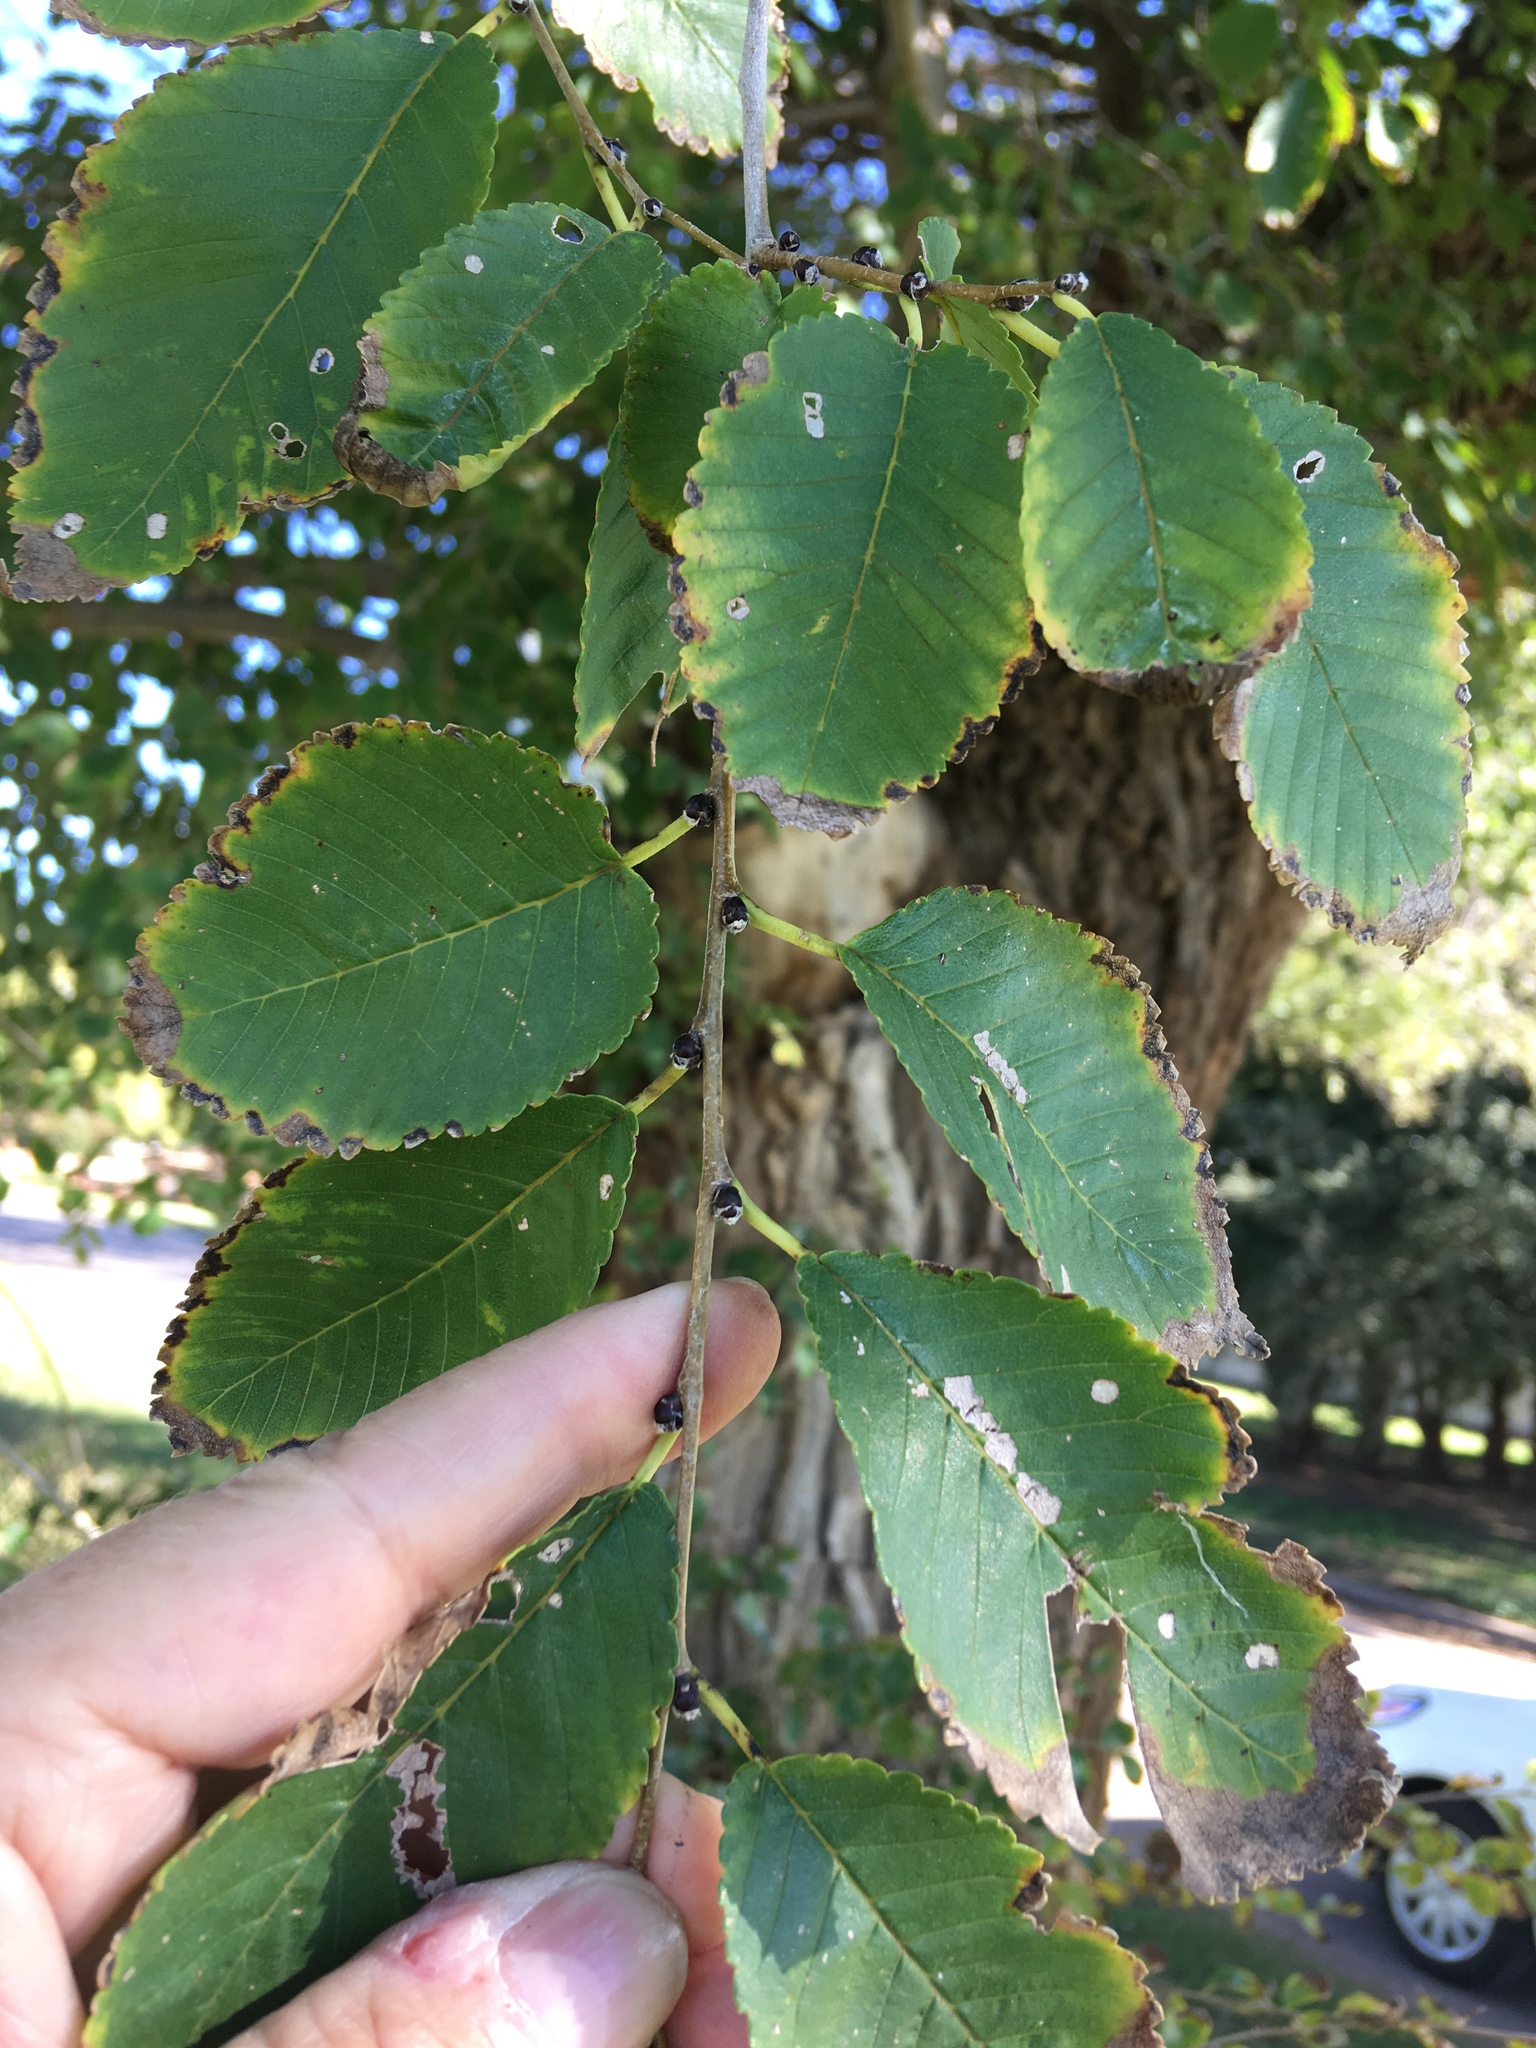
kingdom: Plantae
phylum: Tracheophyta
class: Magnoliopsida
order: Rosales
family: Ulmaceae
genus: Ulmus
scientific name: Ulmus pumila
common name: Siberian elm
